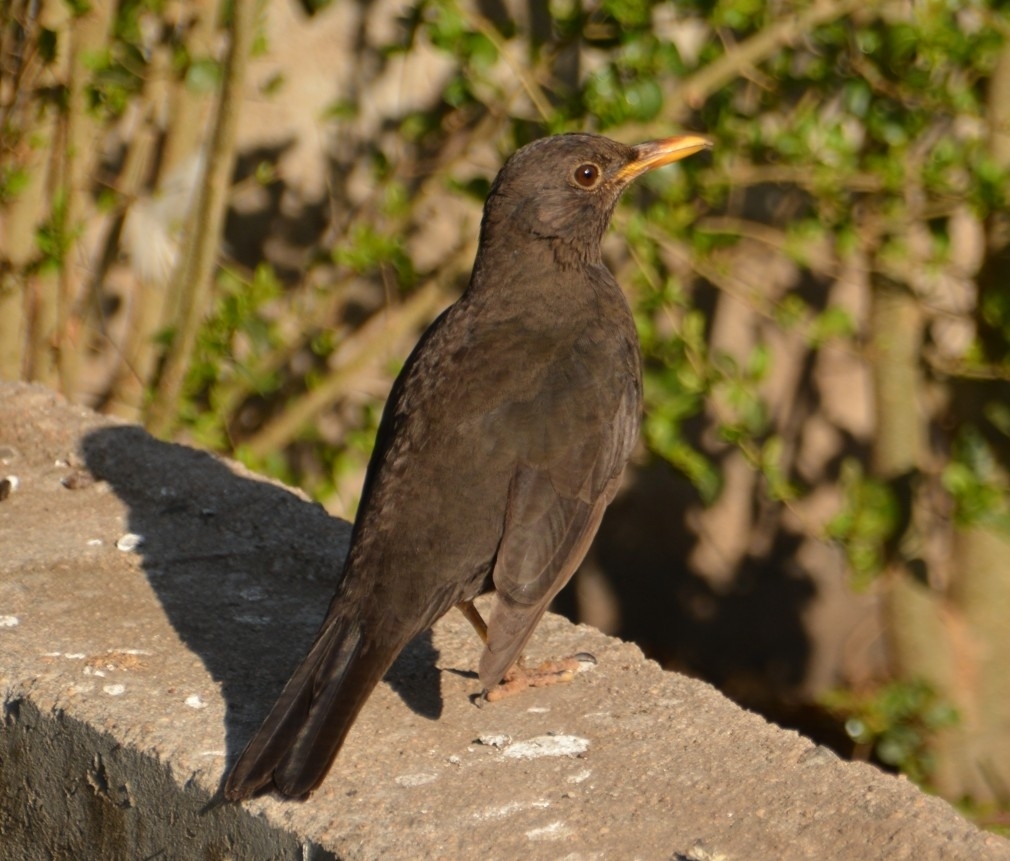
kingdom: Animalia
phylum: Chordata
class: Aves
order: Passeriformes
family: Turdidae
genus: Turdus
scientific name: Turdus chiguanco
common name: Chiguanco thrush
